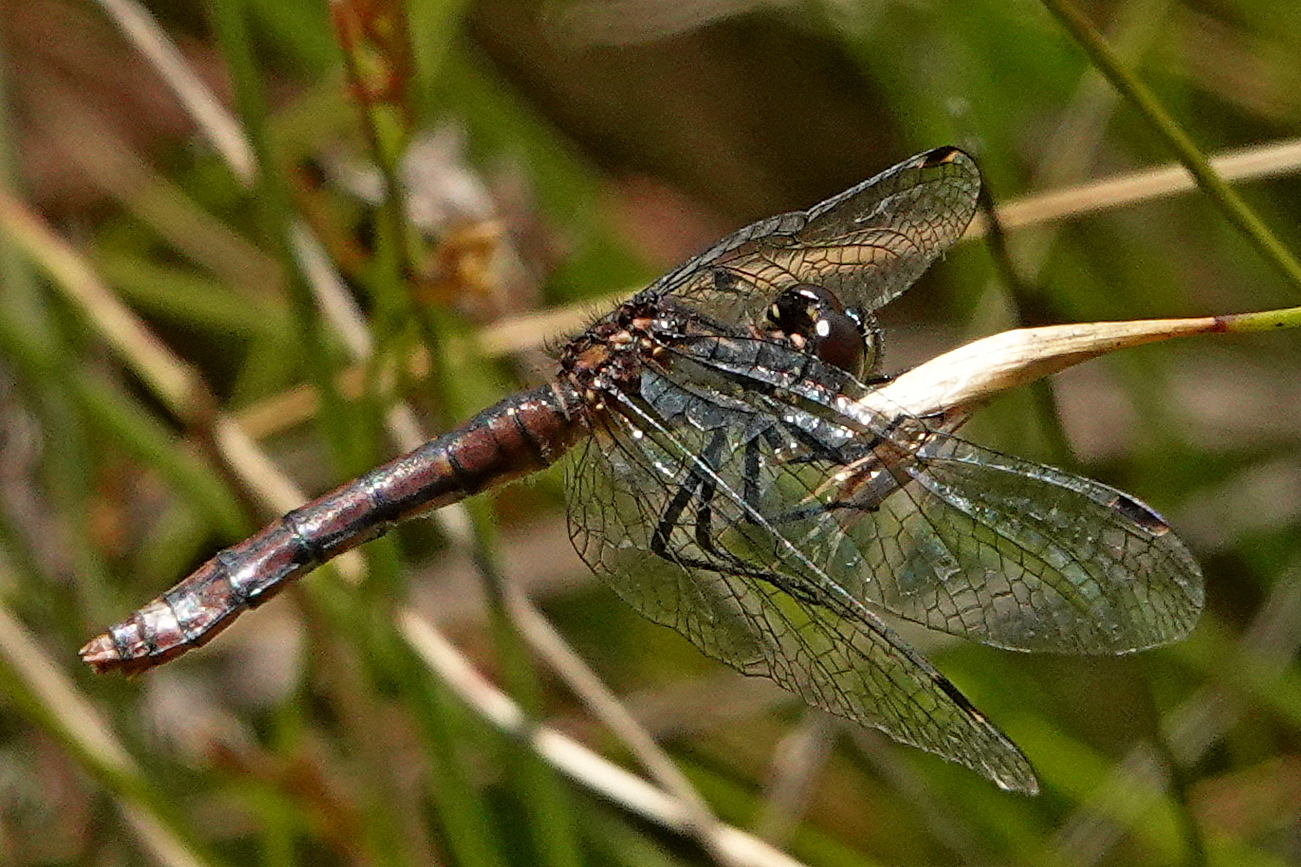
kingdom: Animalia
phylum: Arthropoda
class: Insecta
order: Odonata
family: Libellulidae
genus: Nannophya
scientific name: Nannophya dalei
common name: Eastern pygmyfly
